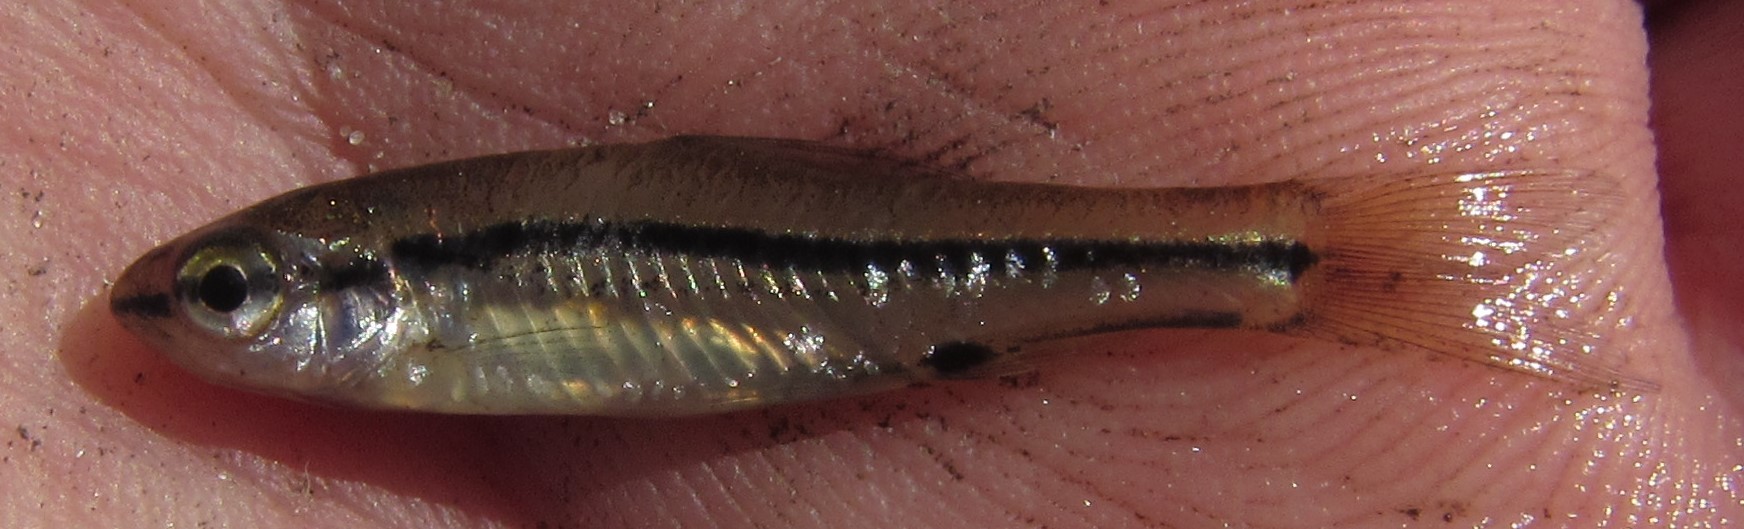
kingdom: Animalia
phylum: Chordata
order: Cypriniformes
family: Cyprinidae
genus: Enteromius
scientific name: Enteromius thamalakanensis
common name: Thamalakane barb
